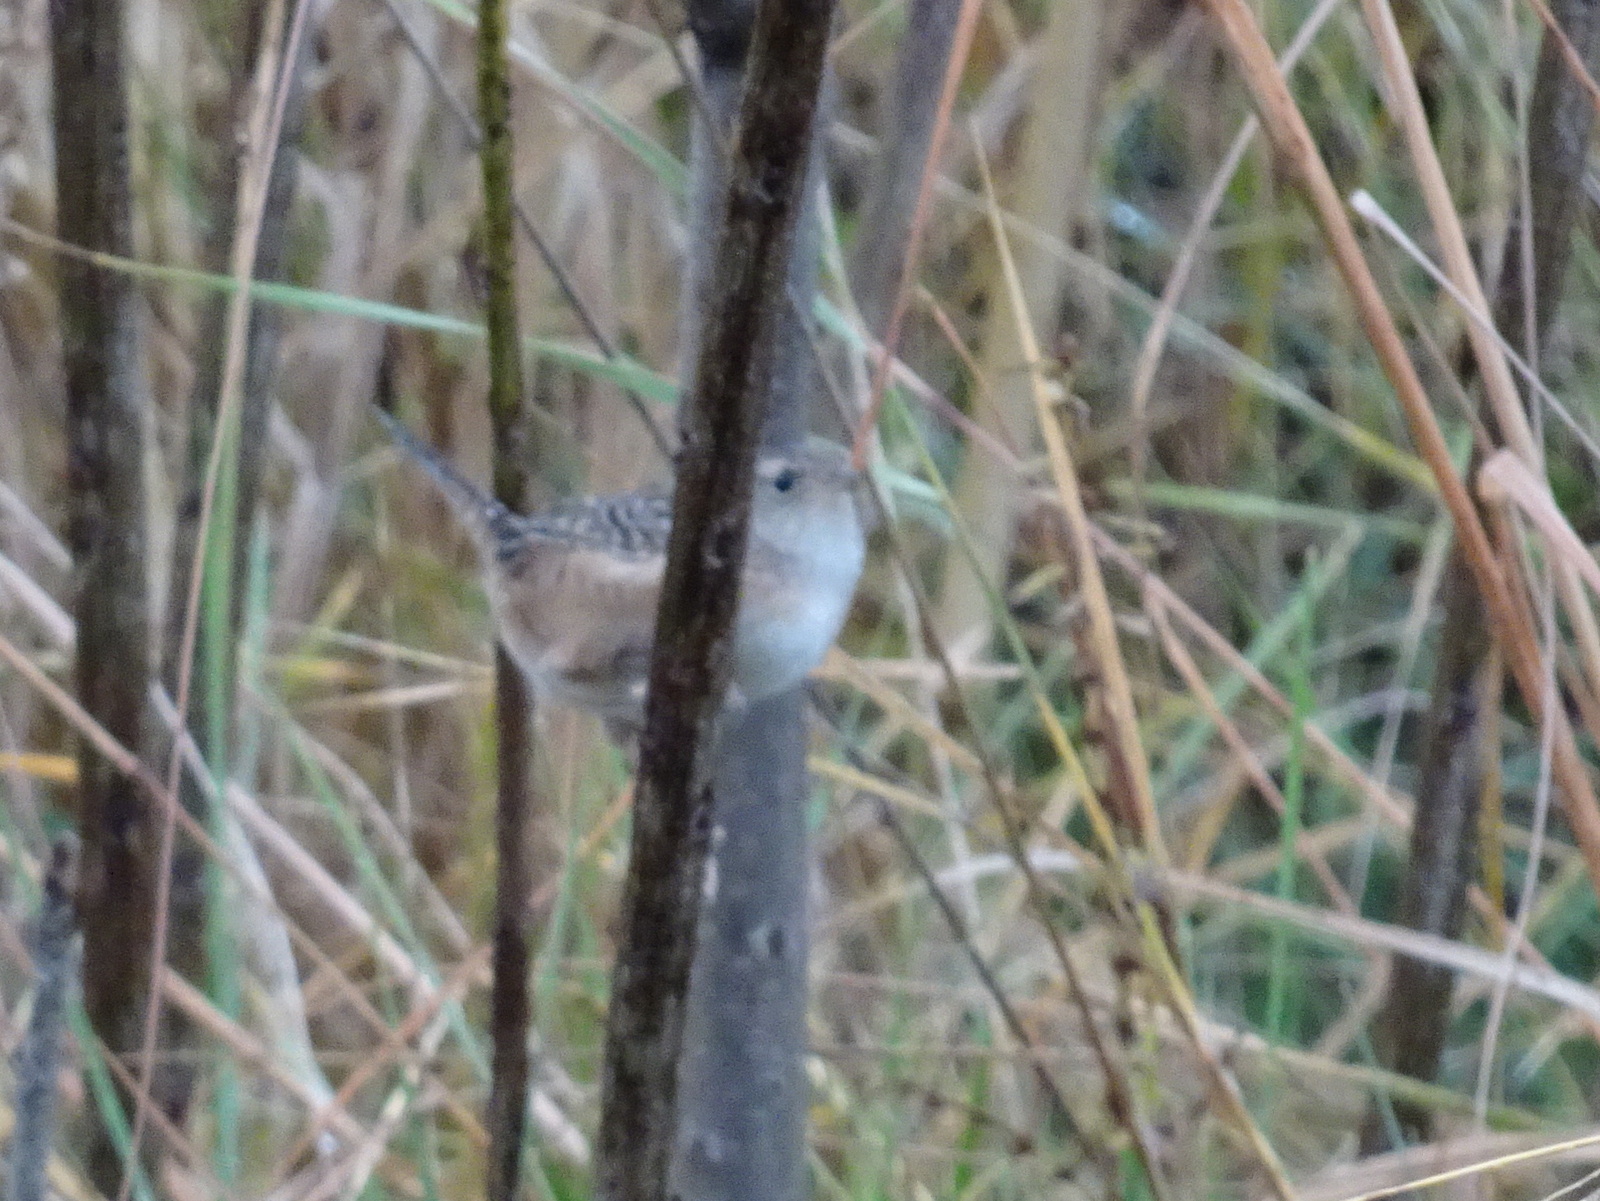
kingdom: Animalia
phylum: Chordata
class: Aves
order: Passeriformes
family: Troglodytidae
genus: Cistothorus
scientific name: Cistothorus platensis
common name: Sedge wren
